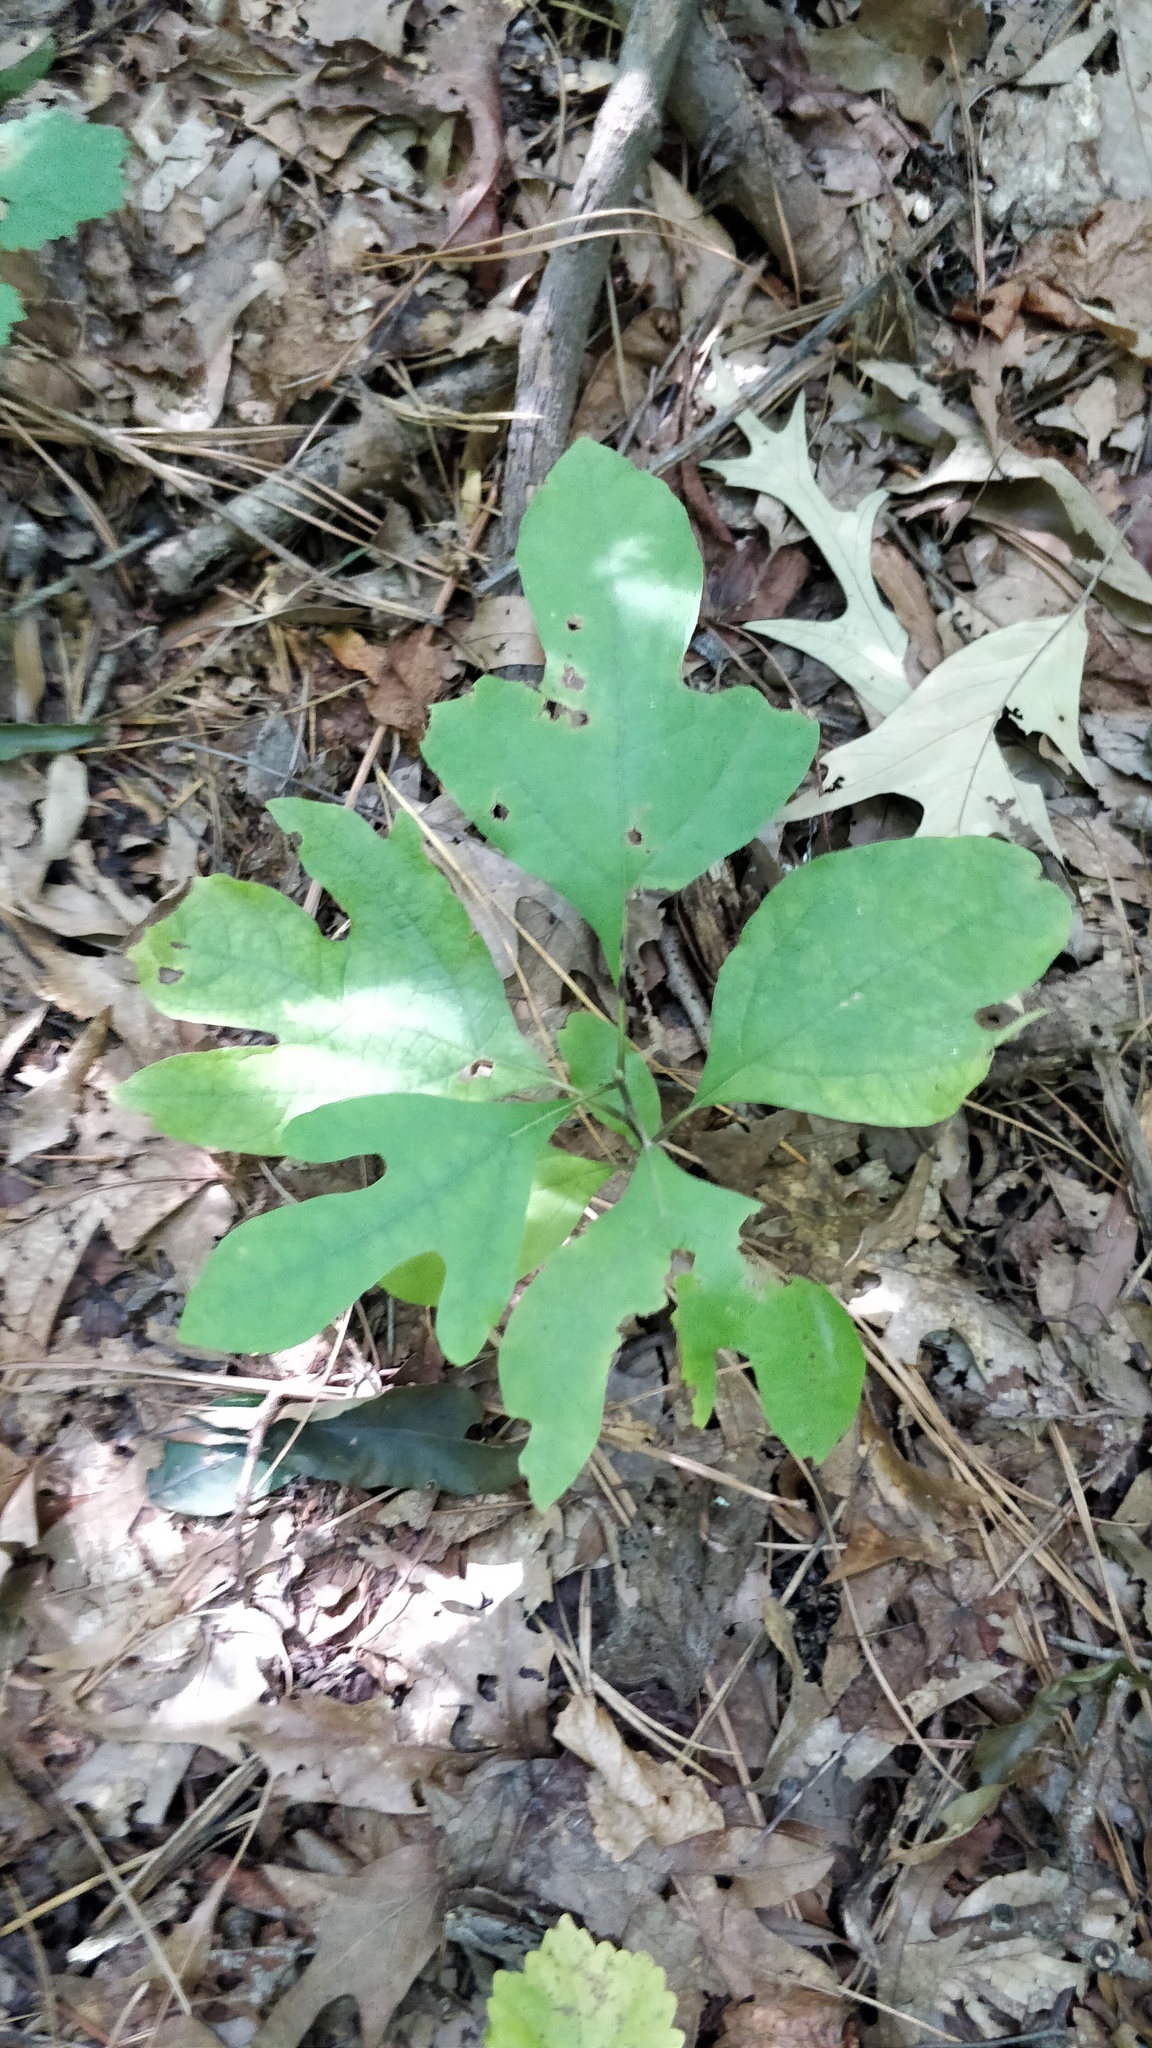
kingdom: Plantae
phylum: Tracheophyta
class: Magnoliopsida
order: Laurales
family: Lauraceae
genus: Sassafras
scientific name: Sassafras albidum
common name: Sassafras
